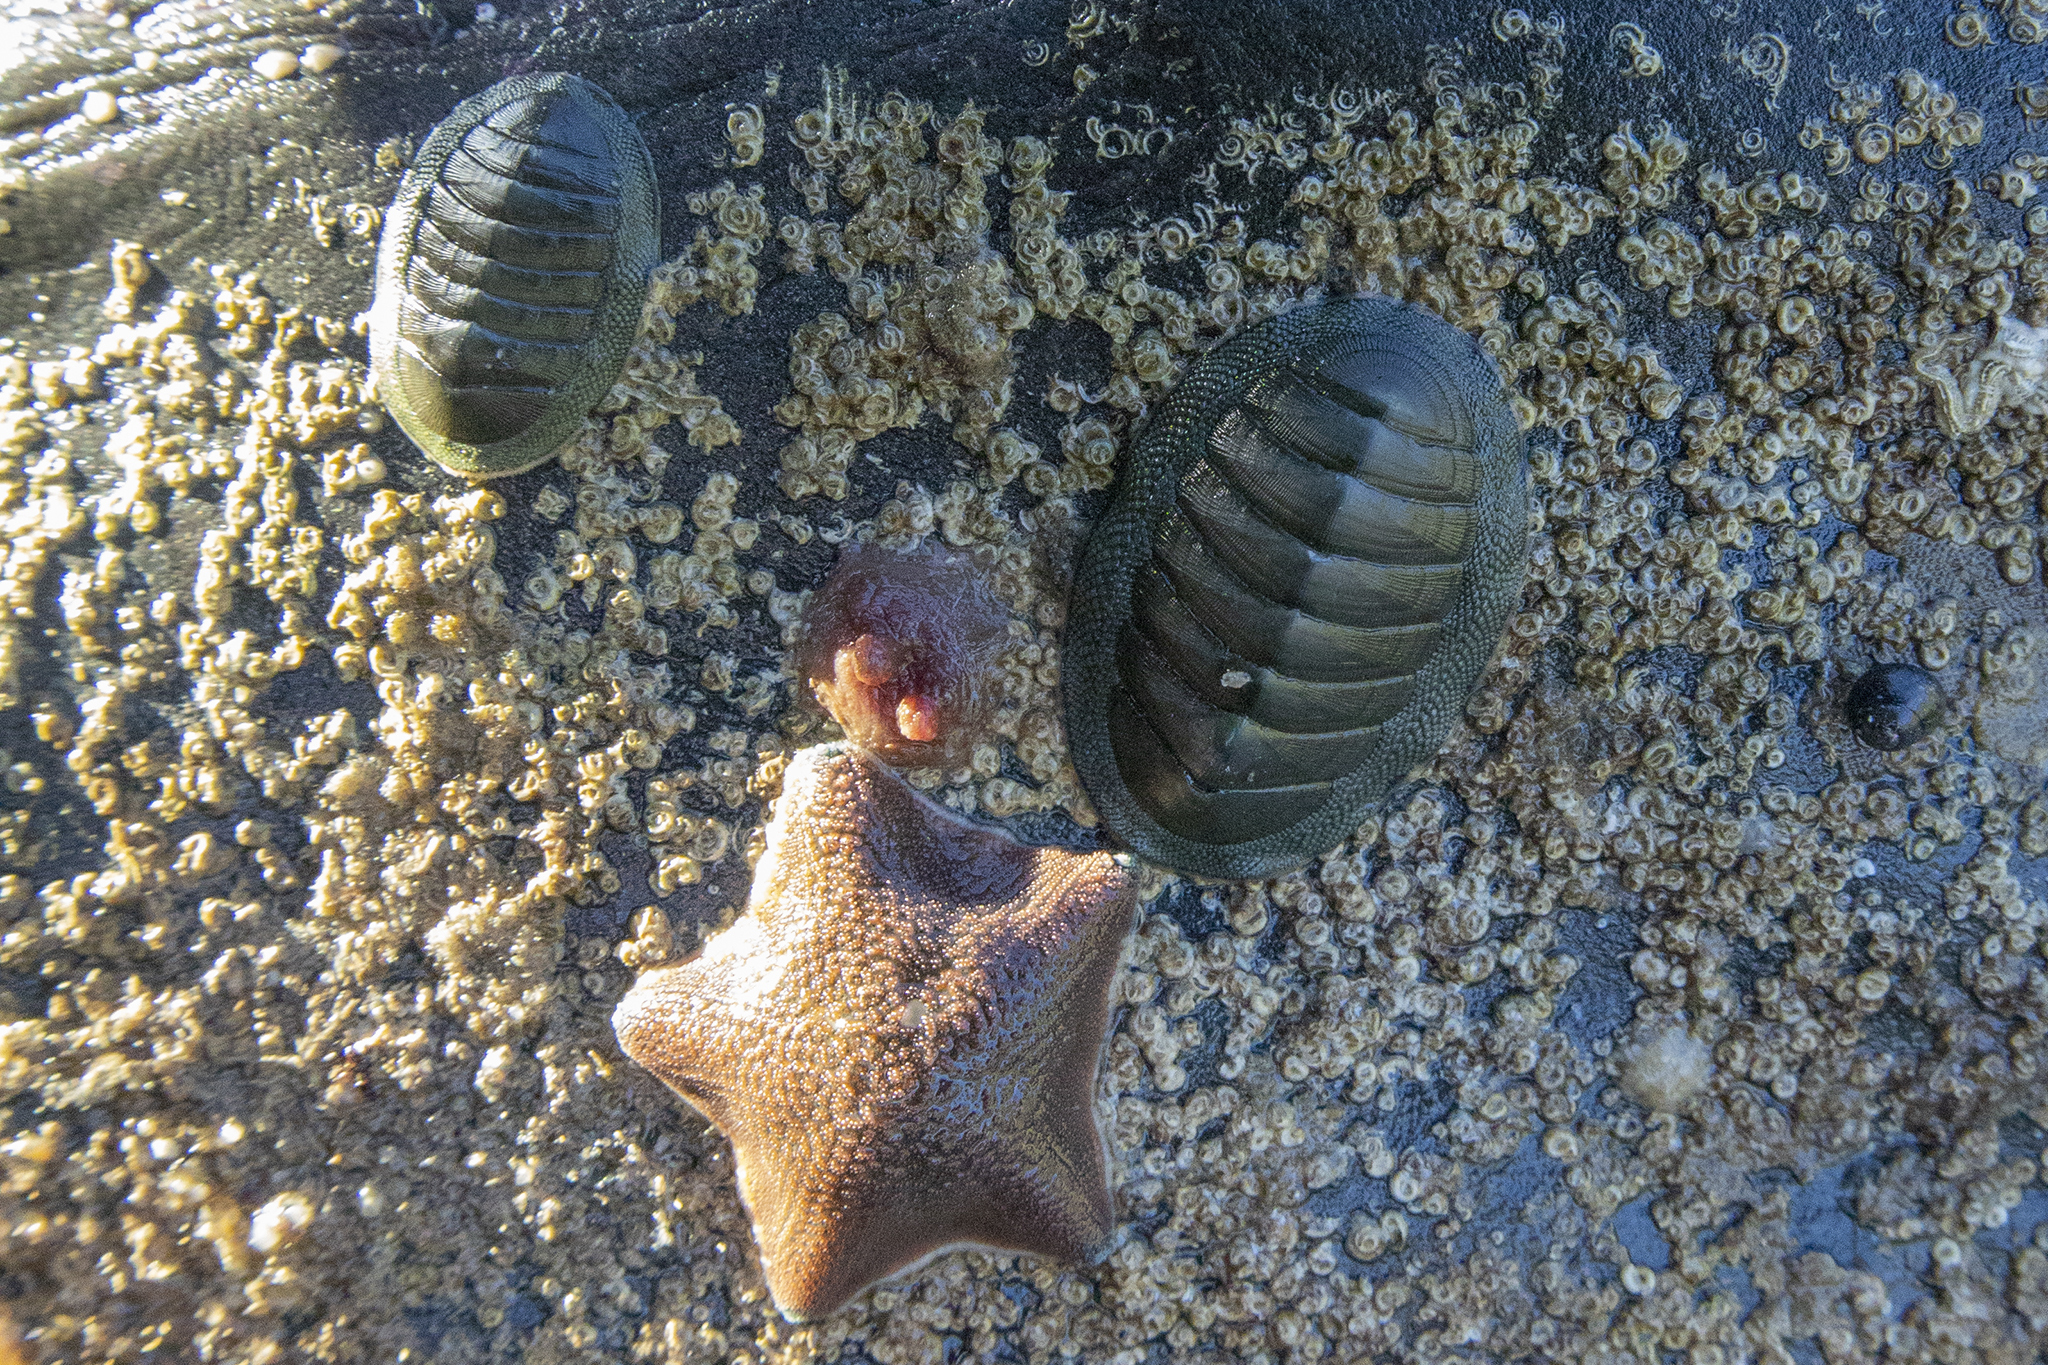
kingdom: Animalia
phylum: Mollusca
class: Polyplacophora
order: Chitonida
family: Chitonidae
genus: Chiton
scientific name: Chiton glaucus
